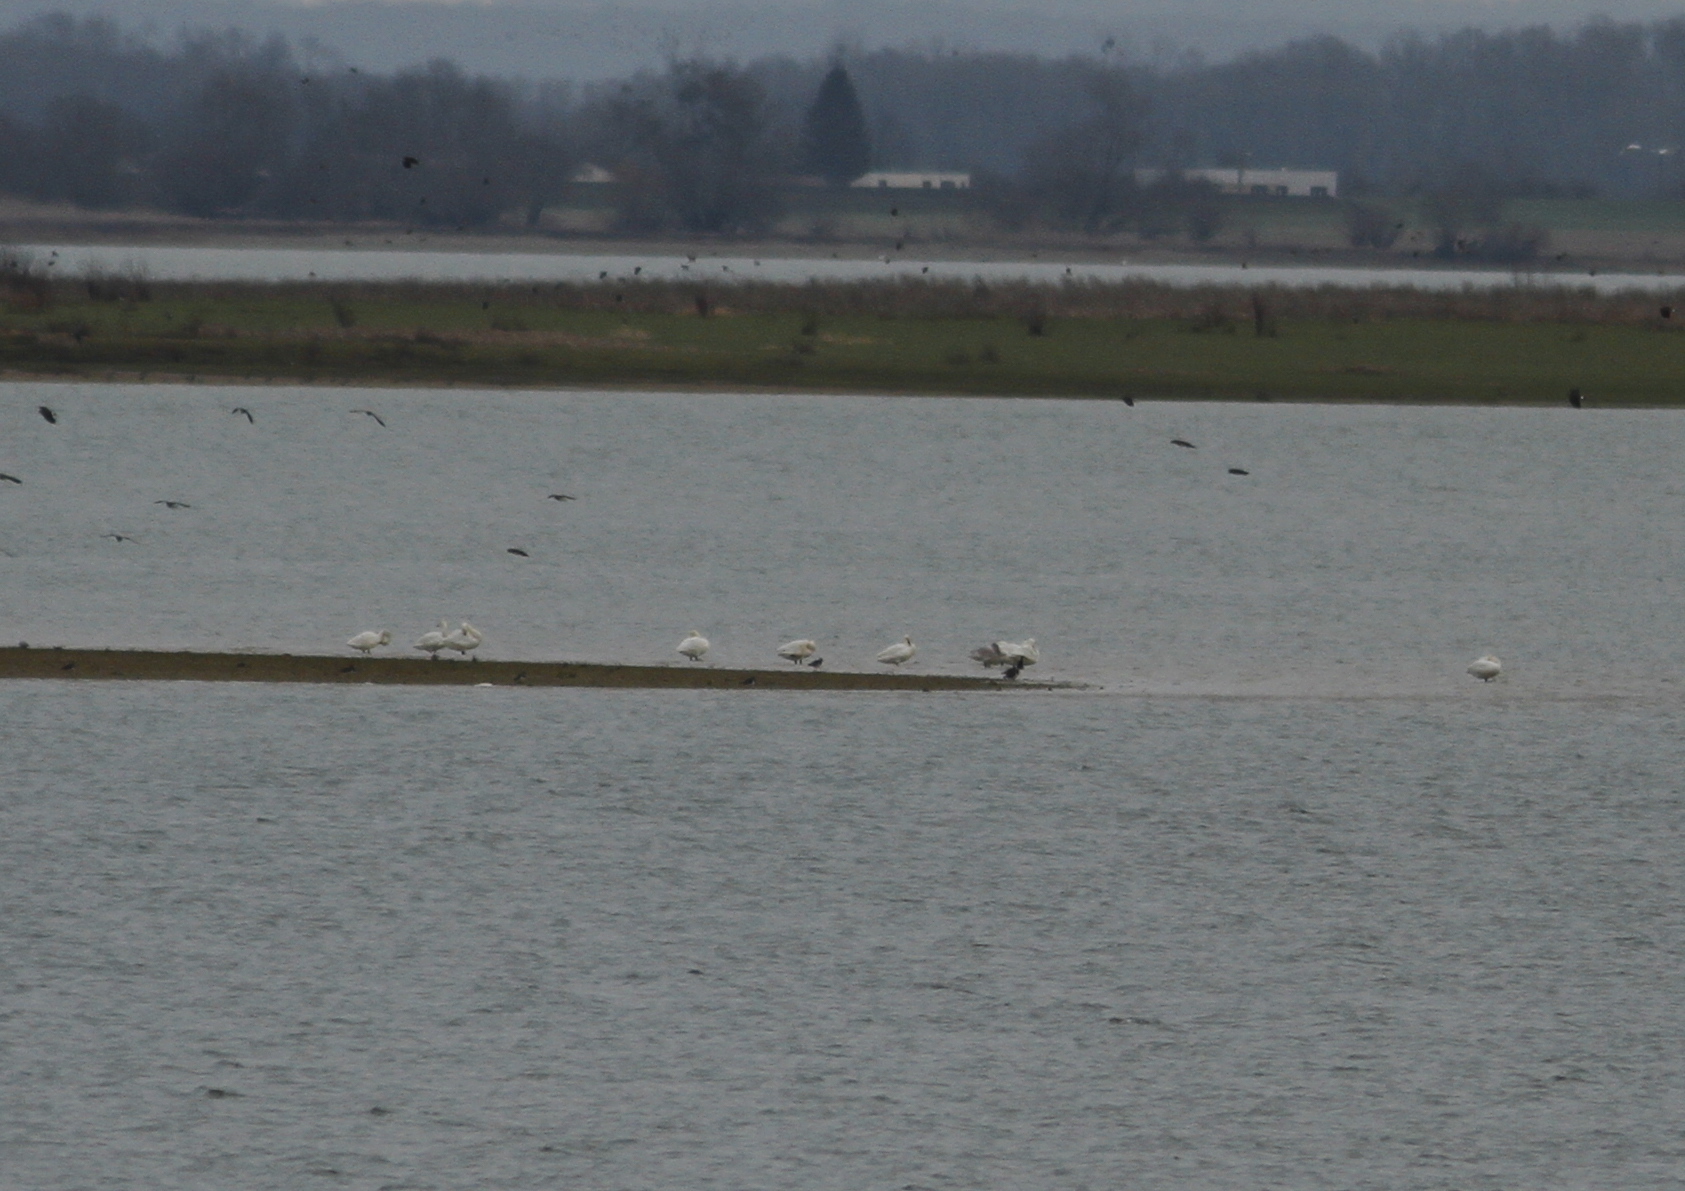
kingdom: Animalia
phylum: Chordata
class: Aves
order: Anseriformes
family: Anatidae
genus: Cygnus
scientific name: Cygnus columbianus
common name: Tundra swan
